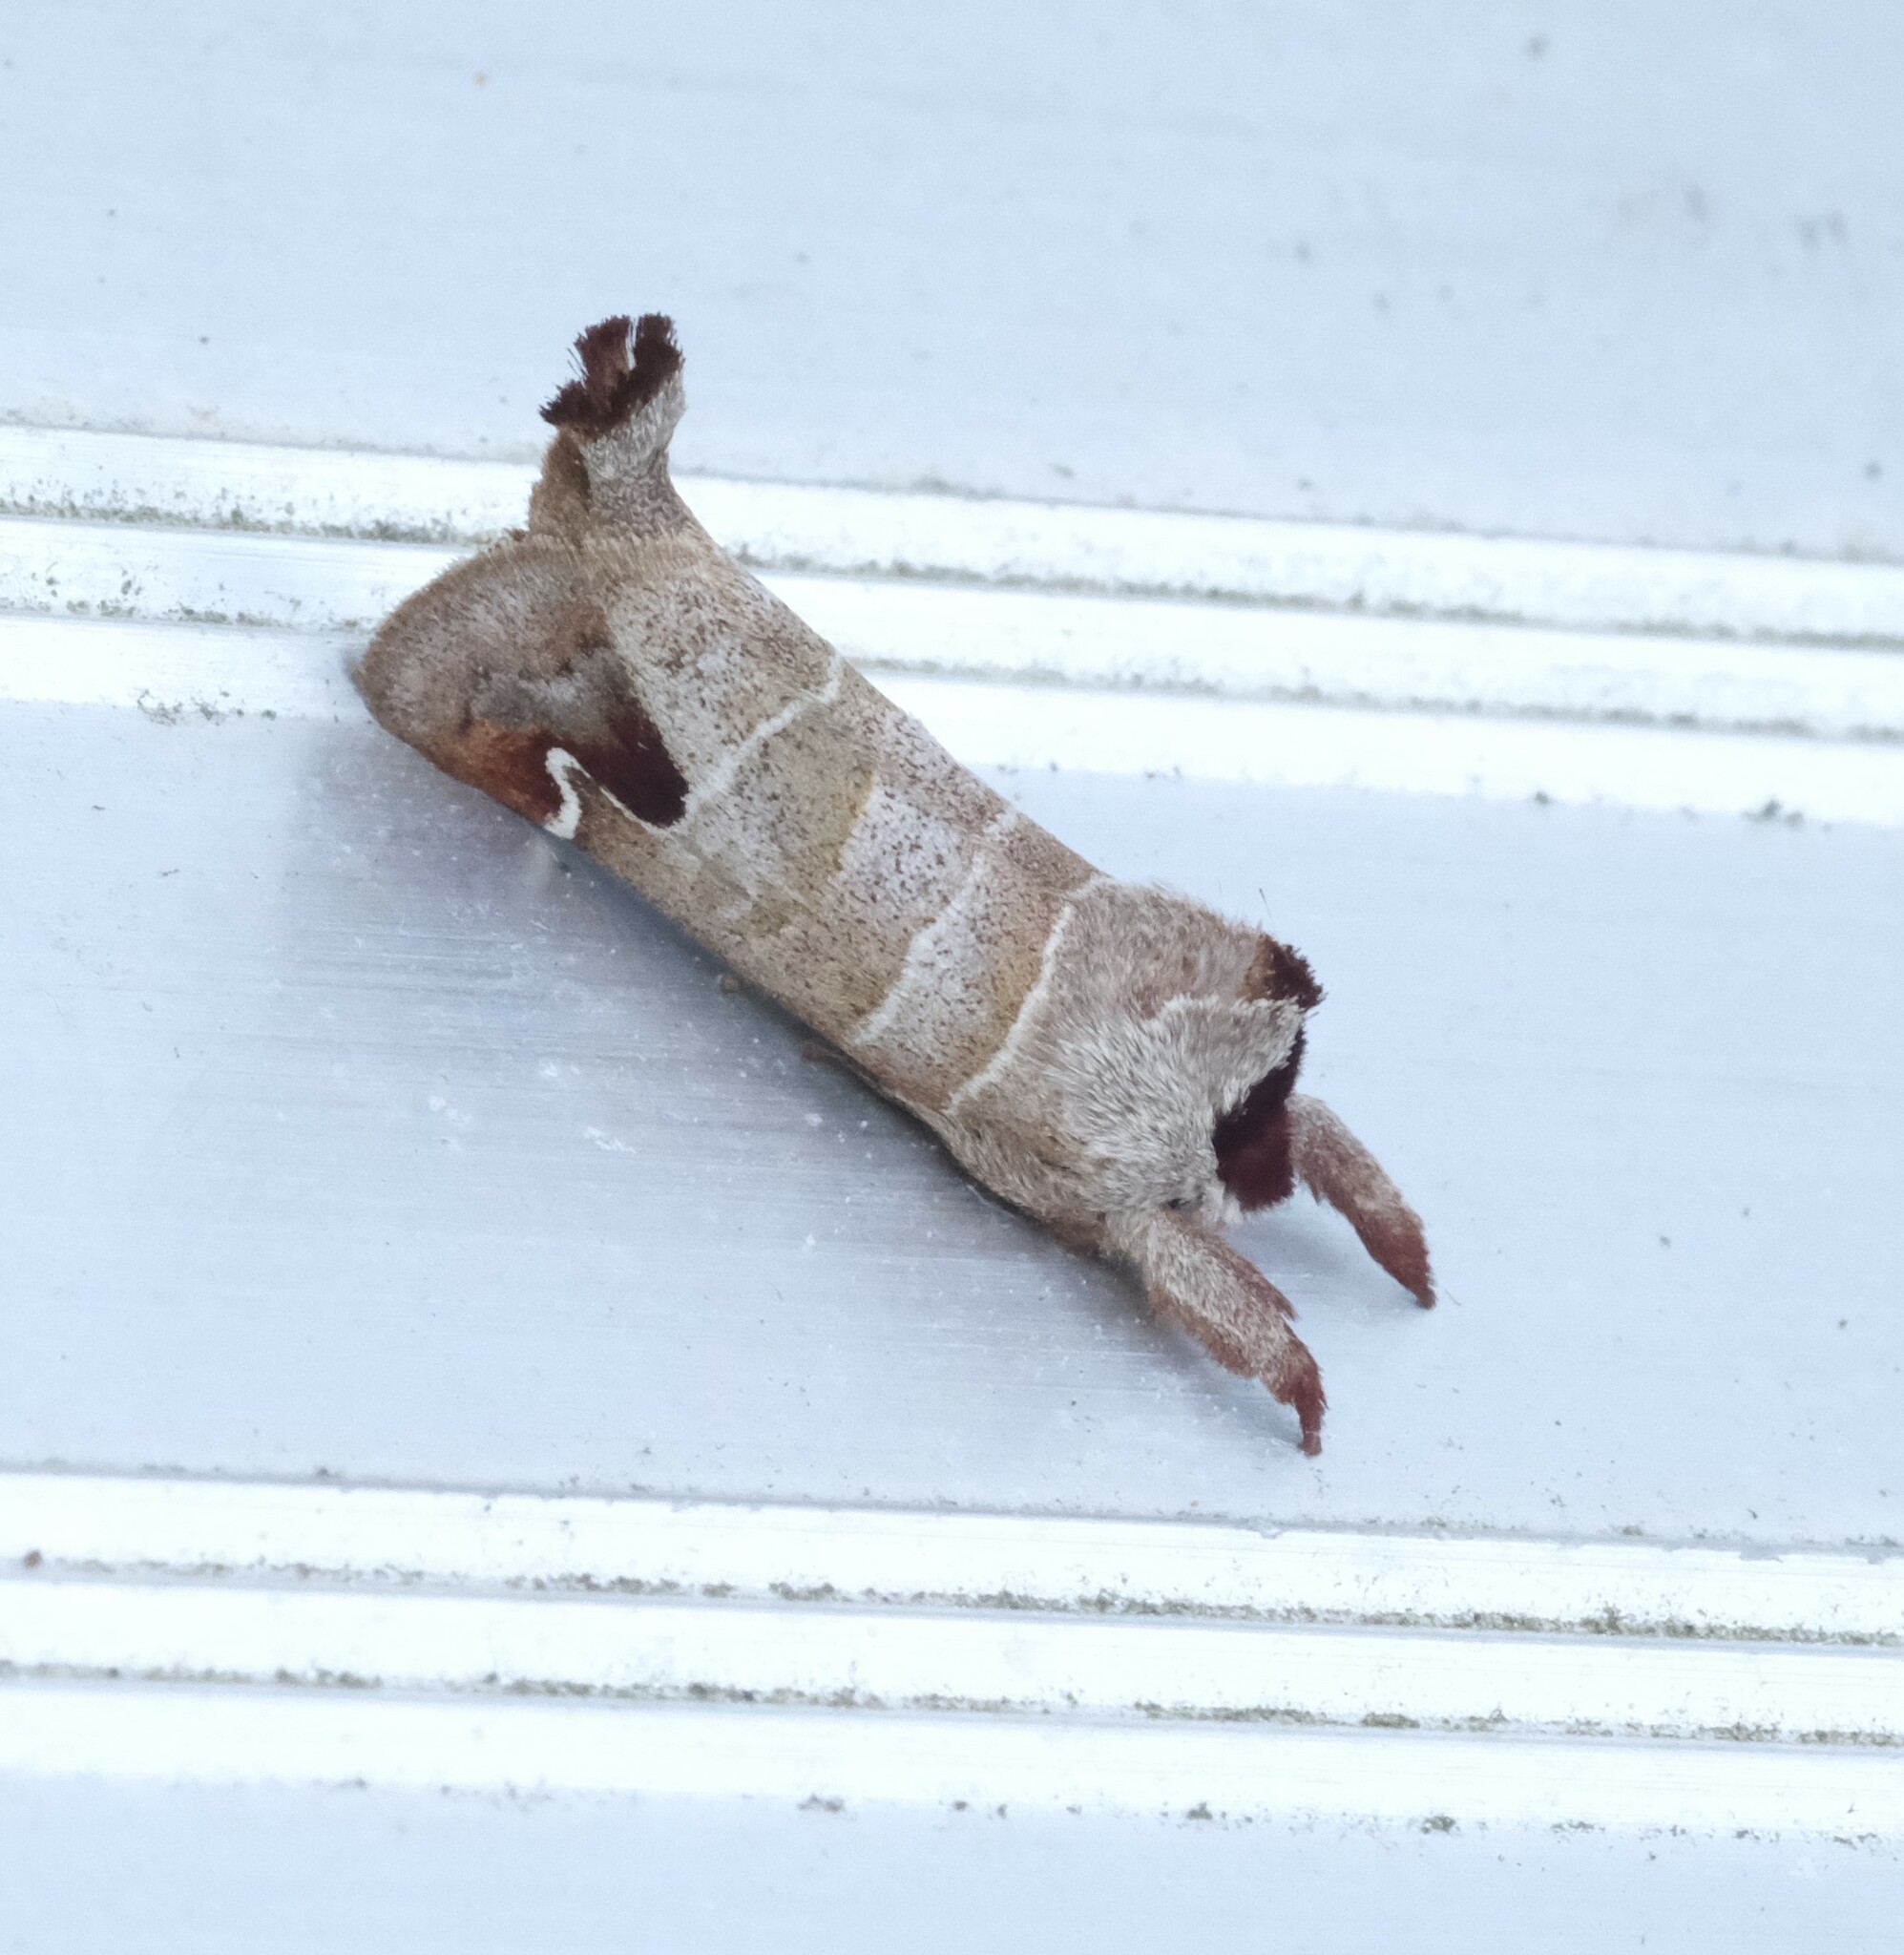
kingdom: Animalia
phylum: Arthropoda
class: Insecta
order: Lepidoptera
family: Notodontidae
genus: Clostera
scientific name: Clostera albosigma
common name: Sigmoid prominent
